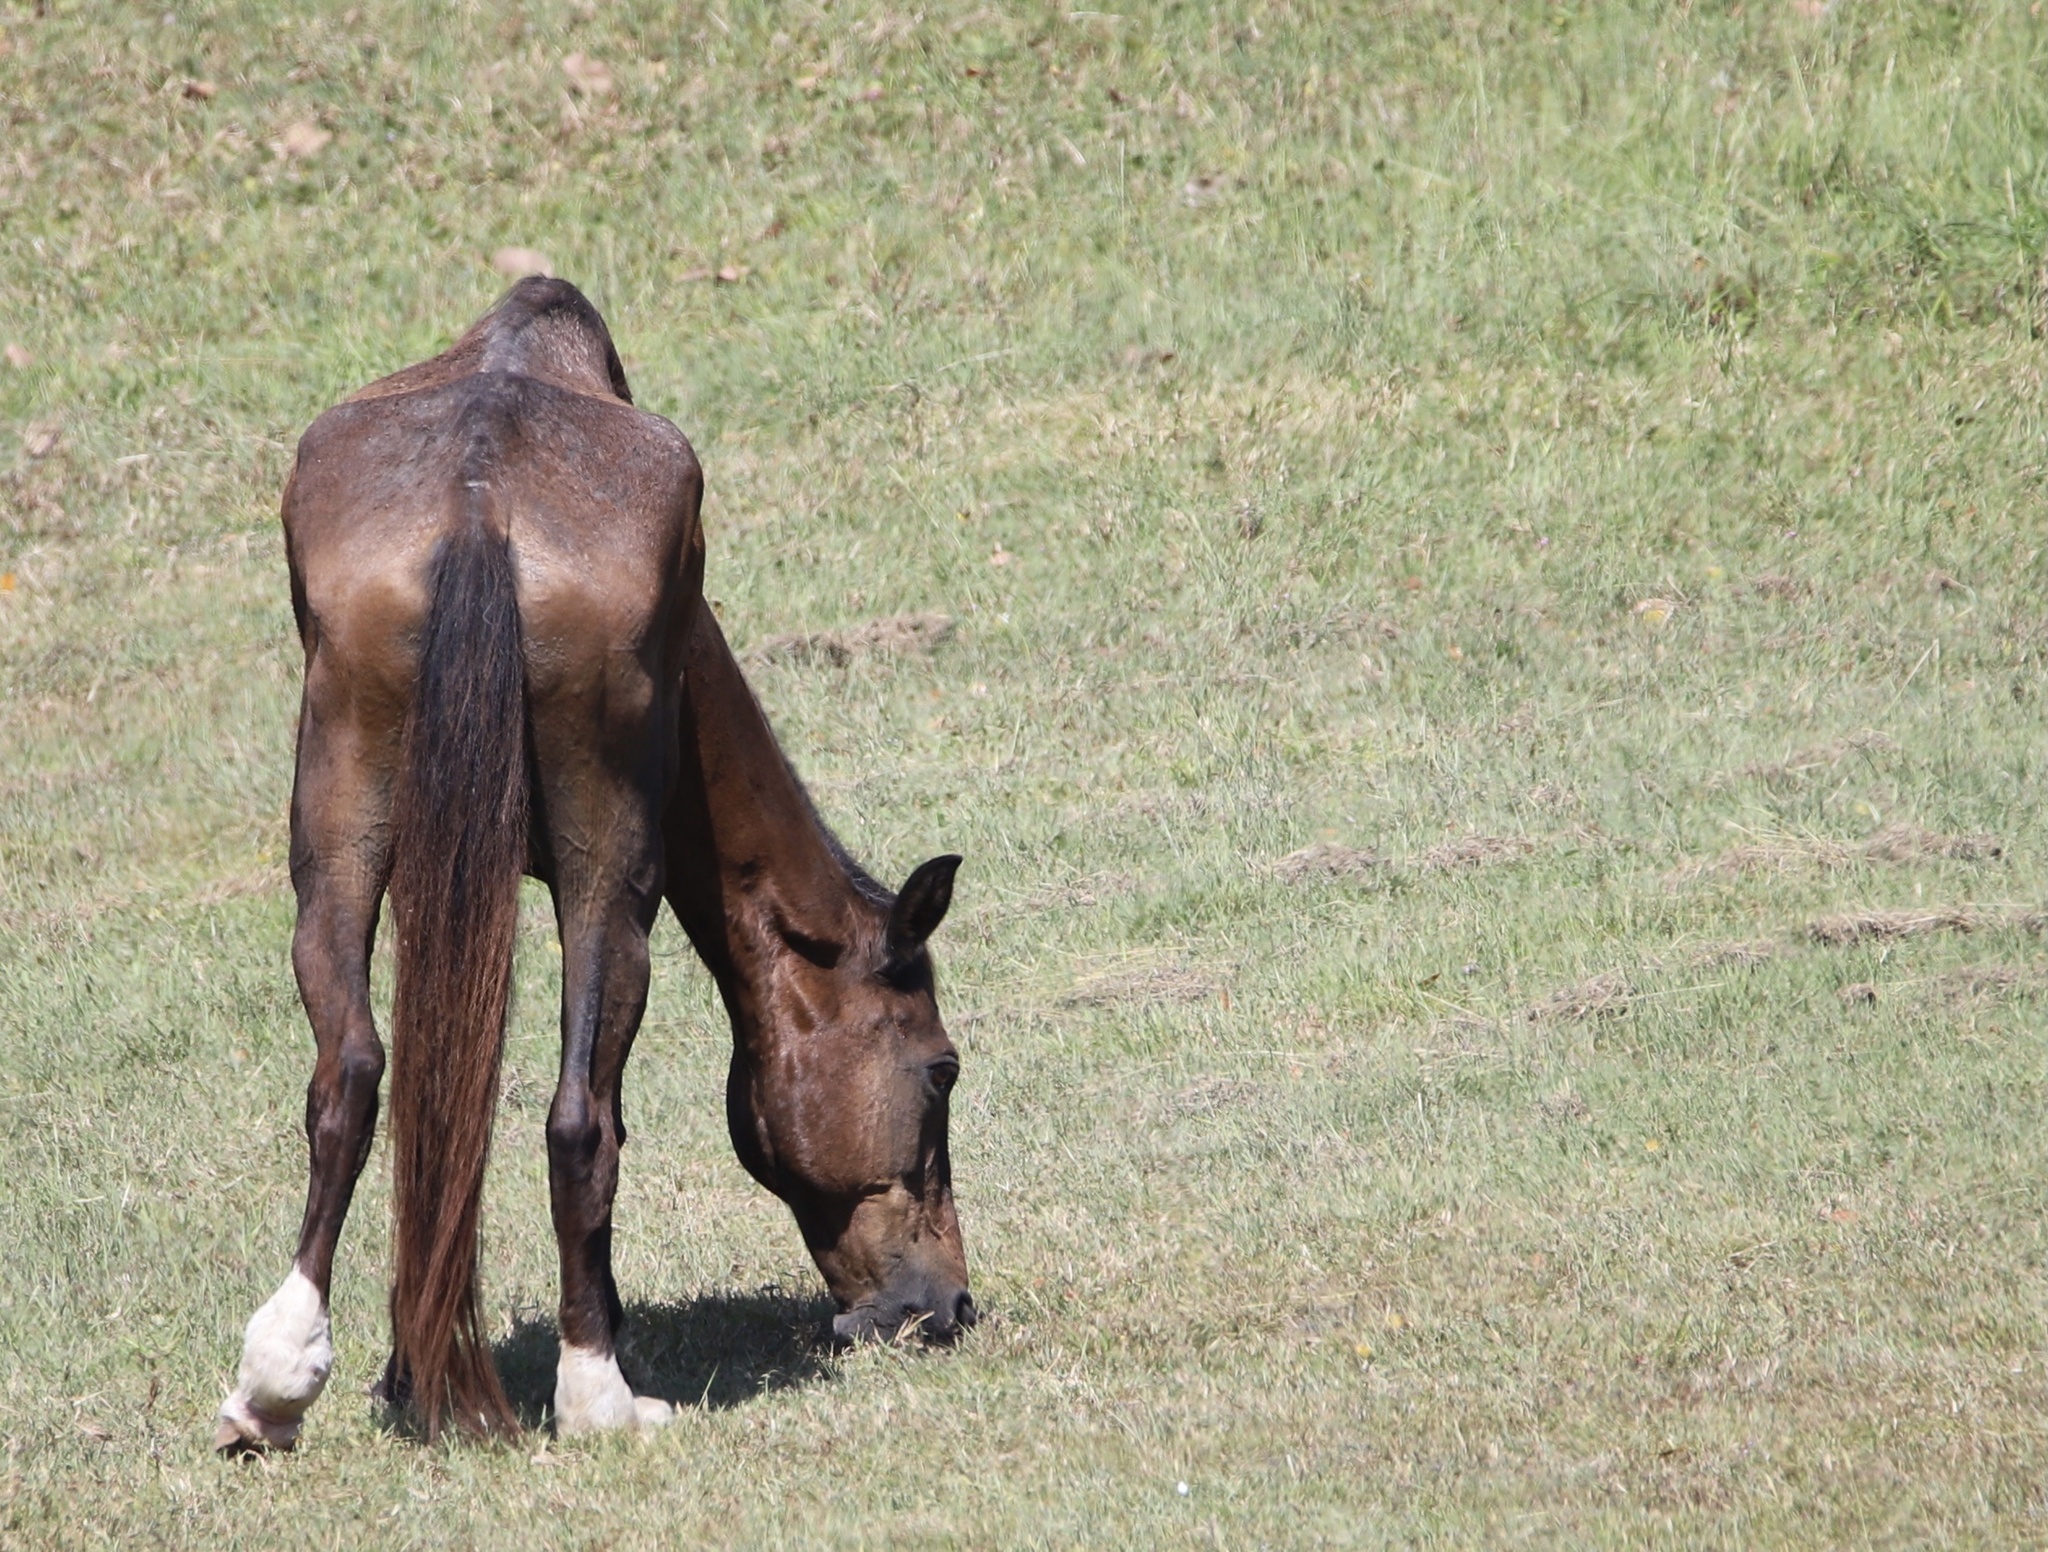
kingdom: Animalia
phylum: Chordata
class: Mammalia
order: Perissodactyla
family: Equidae
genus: Equus
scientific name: Equus caballus
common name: Horse
